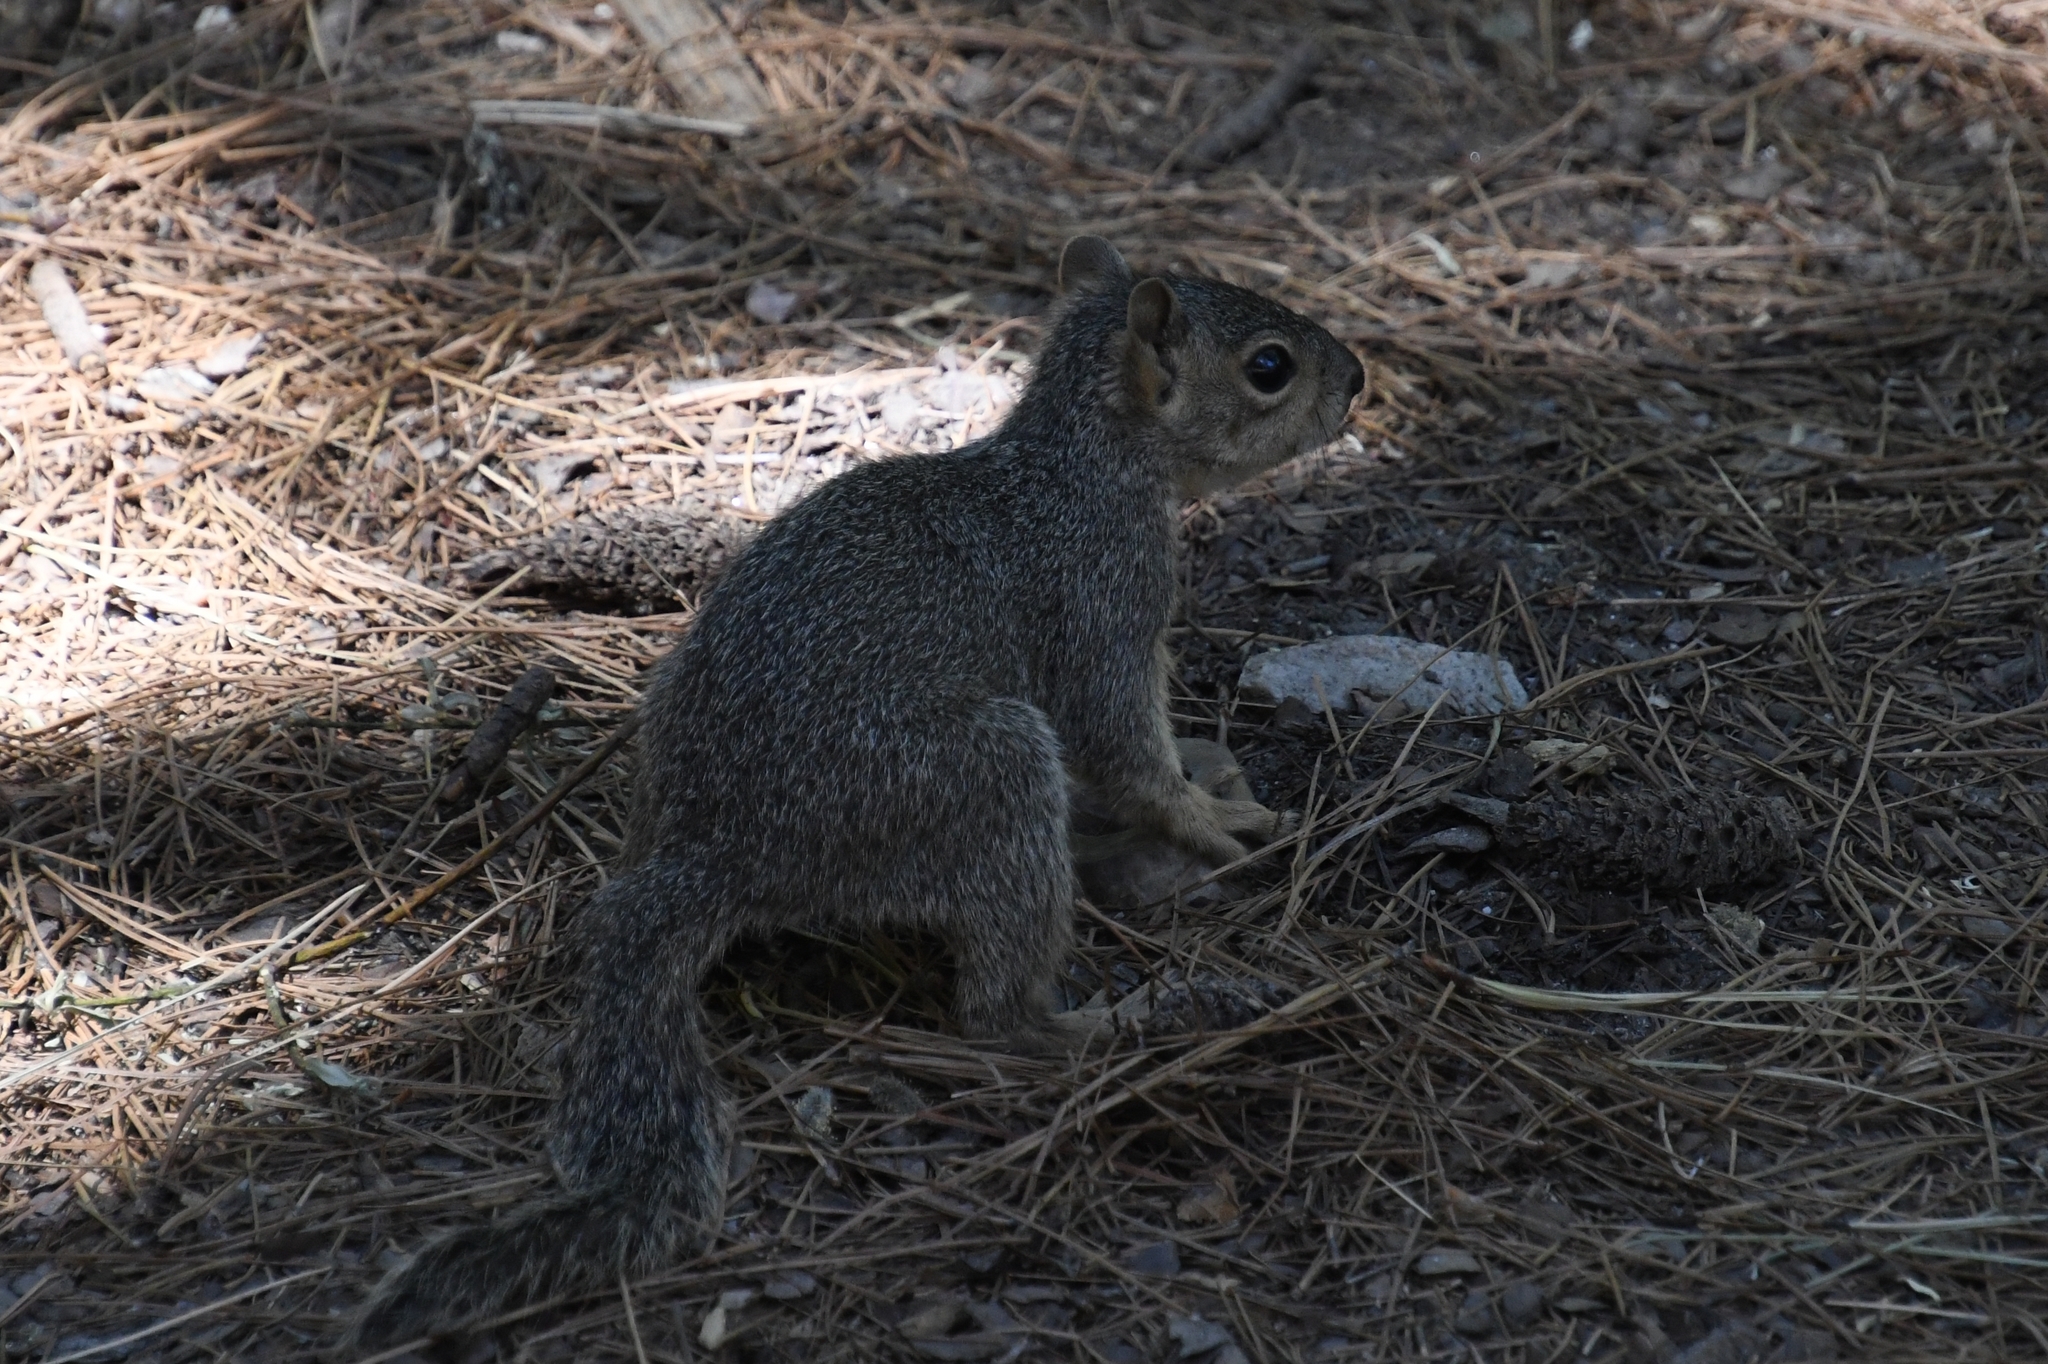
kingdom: Animalia
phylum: Chordata
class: Mammalia
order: Rodentia
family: Sciuridae
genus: Otospermophilus
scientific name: Otospermophilus variegatus
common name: Rock squirrel
